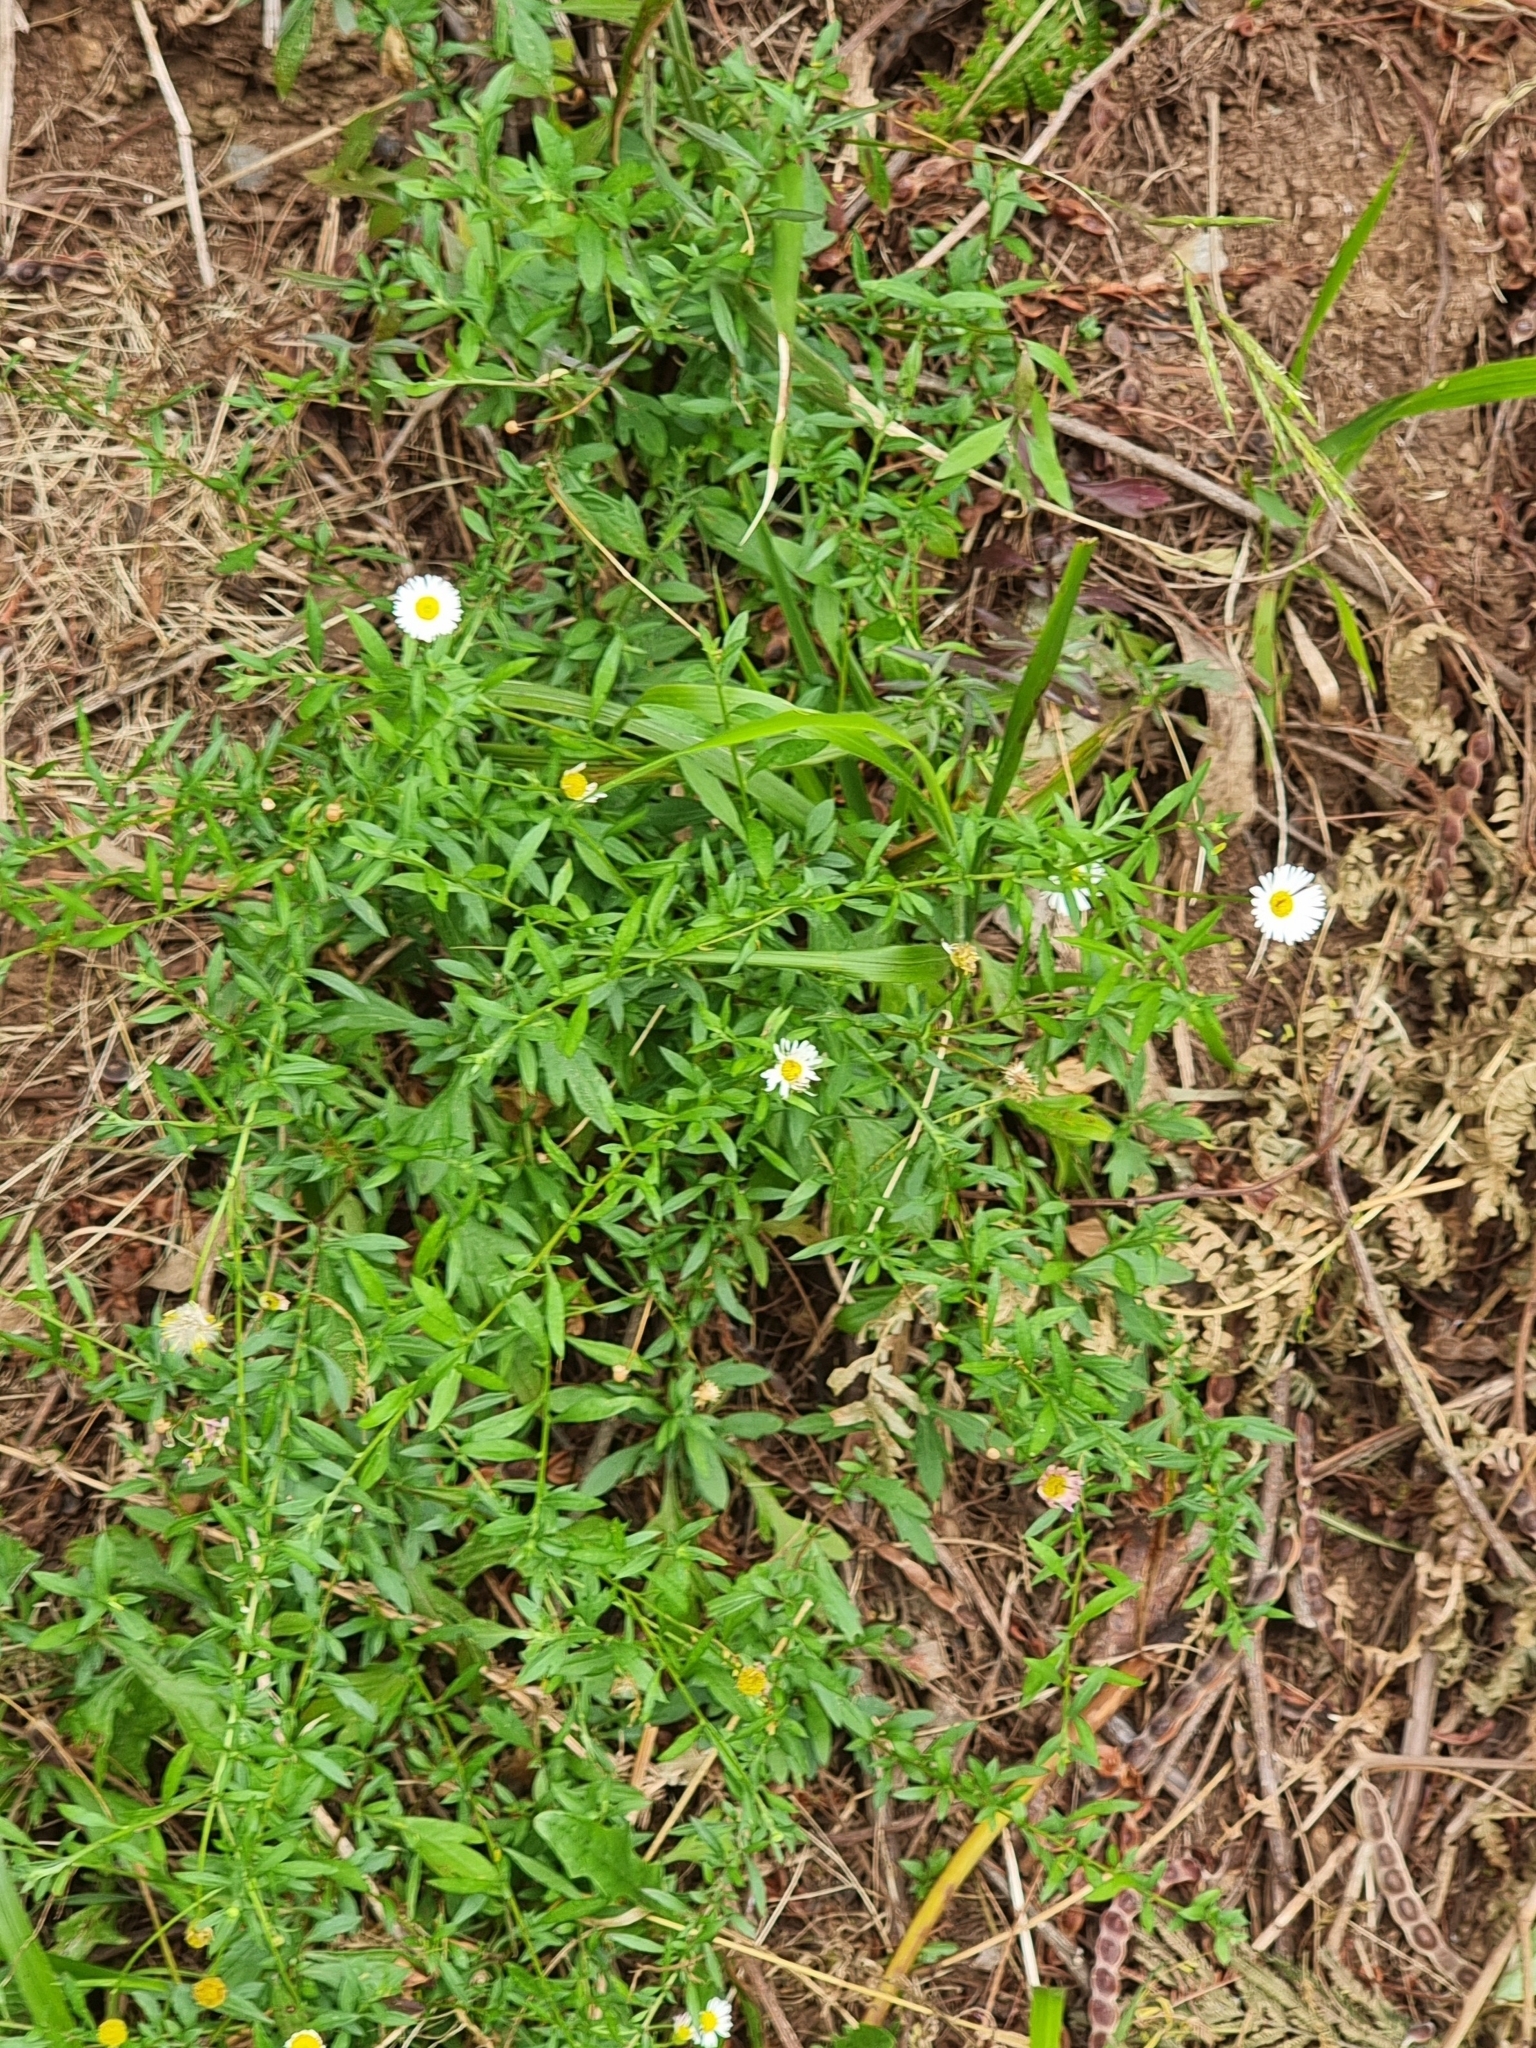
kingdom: Plantae
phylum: Tracheophyta
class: Magnoliopsida
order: Asterales
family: Asteraceae
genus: Erigeron
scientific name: Erigeron karvinskianus
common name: Mexican fleabane
